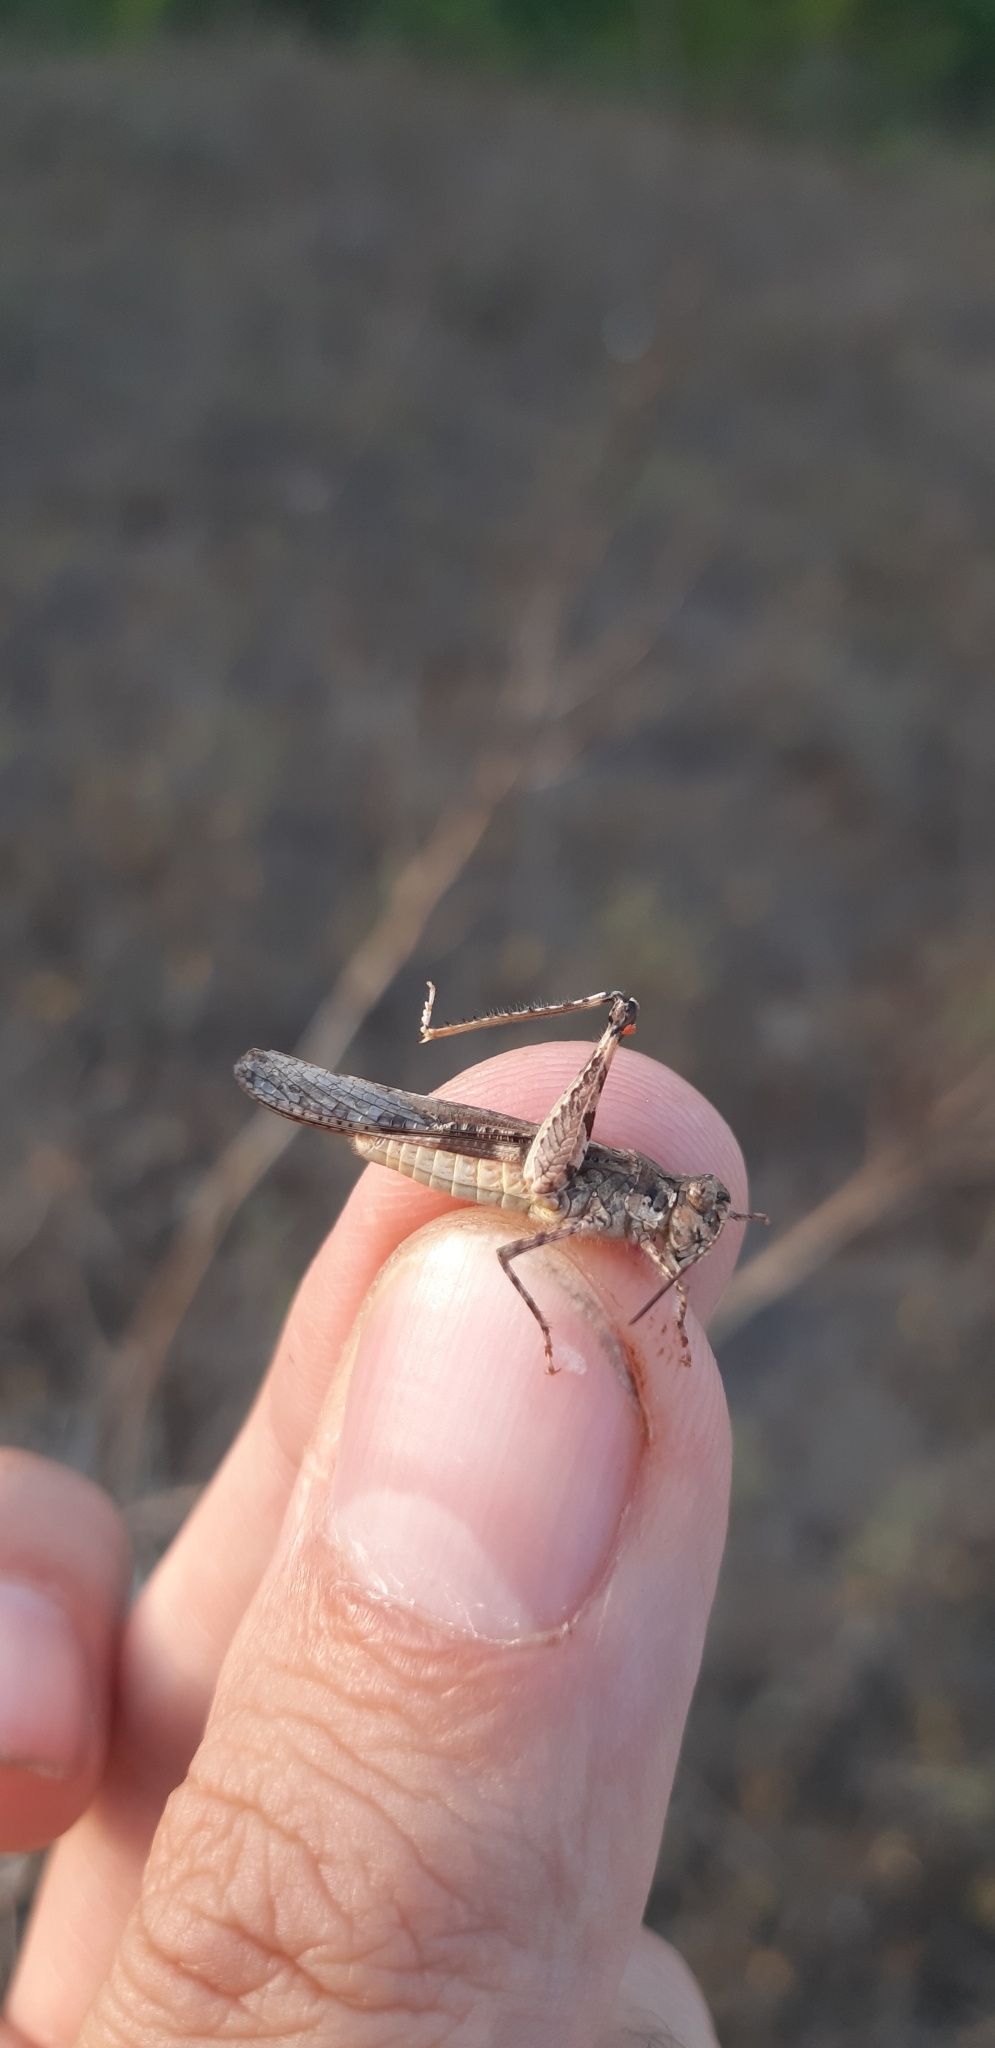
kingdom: Animalia
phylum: Arthropoda
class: Insecta
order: Orthoptera
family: Acrididae
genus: Acrotylus
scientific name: Acrotylus patruelis
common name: Slender burrowing grasshopper
